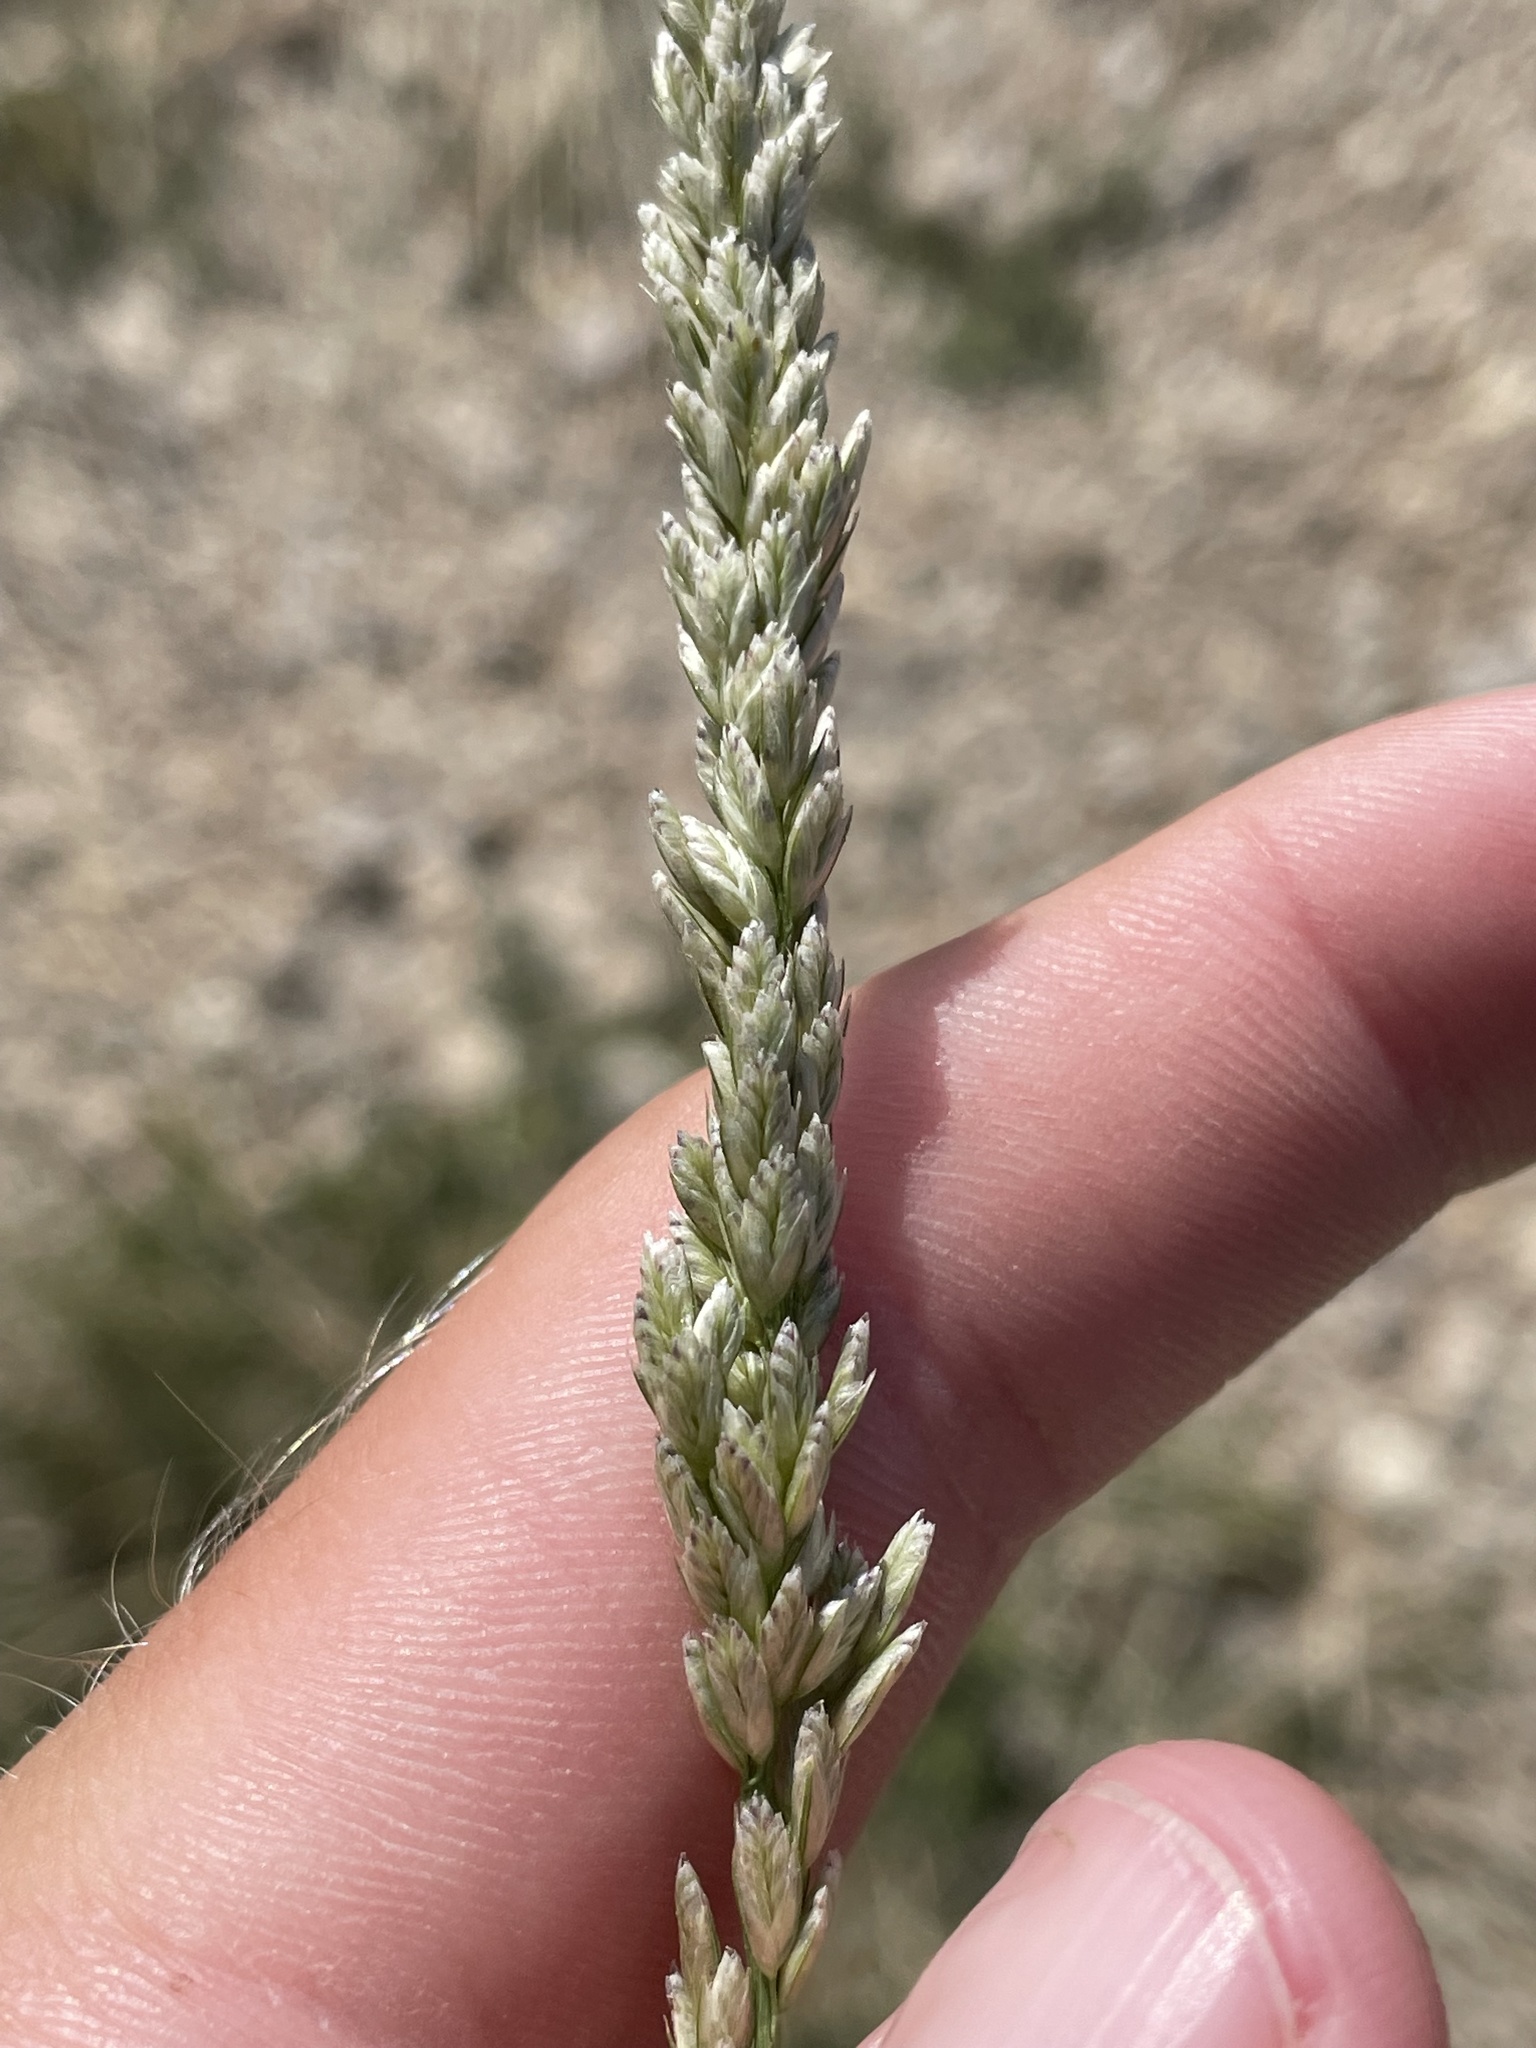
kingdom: Plantae
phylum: Tracheophyta
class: Liliopsida
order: Poales
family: Poaceae
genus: Tridens
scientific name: Tridens albescens
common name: White tridens
